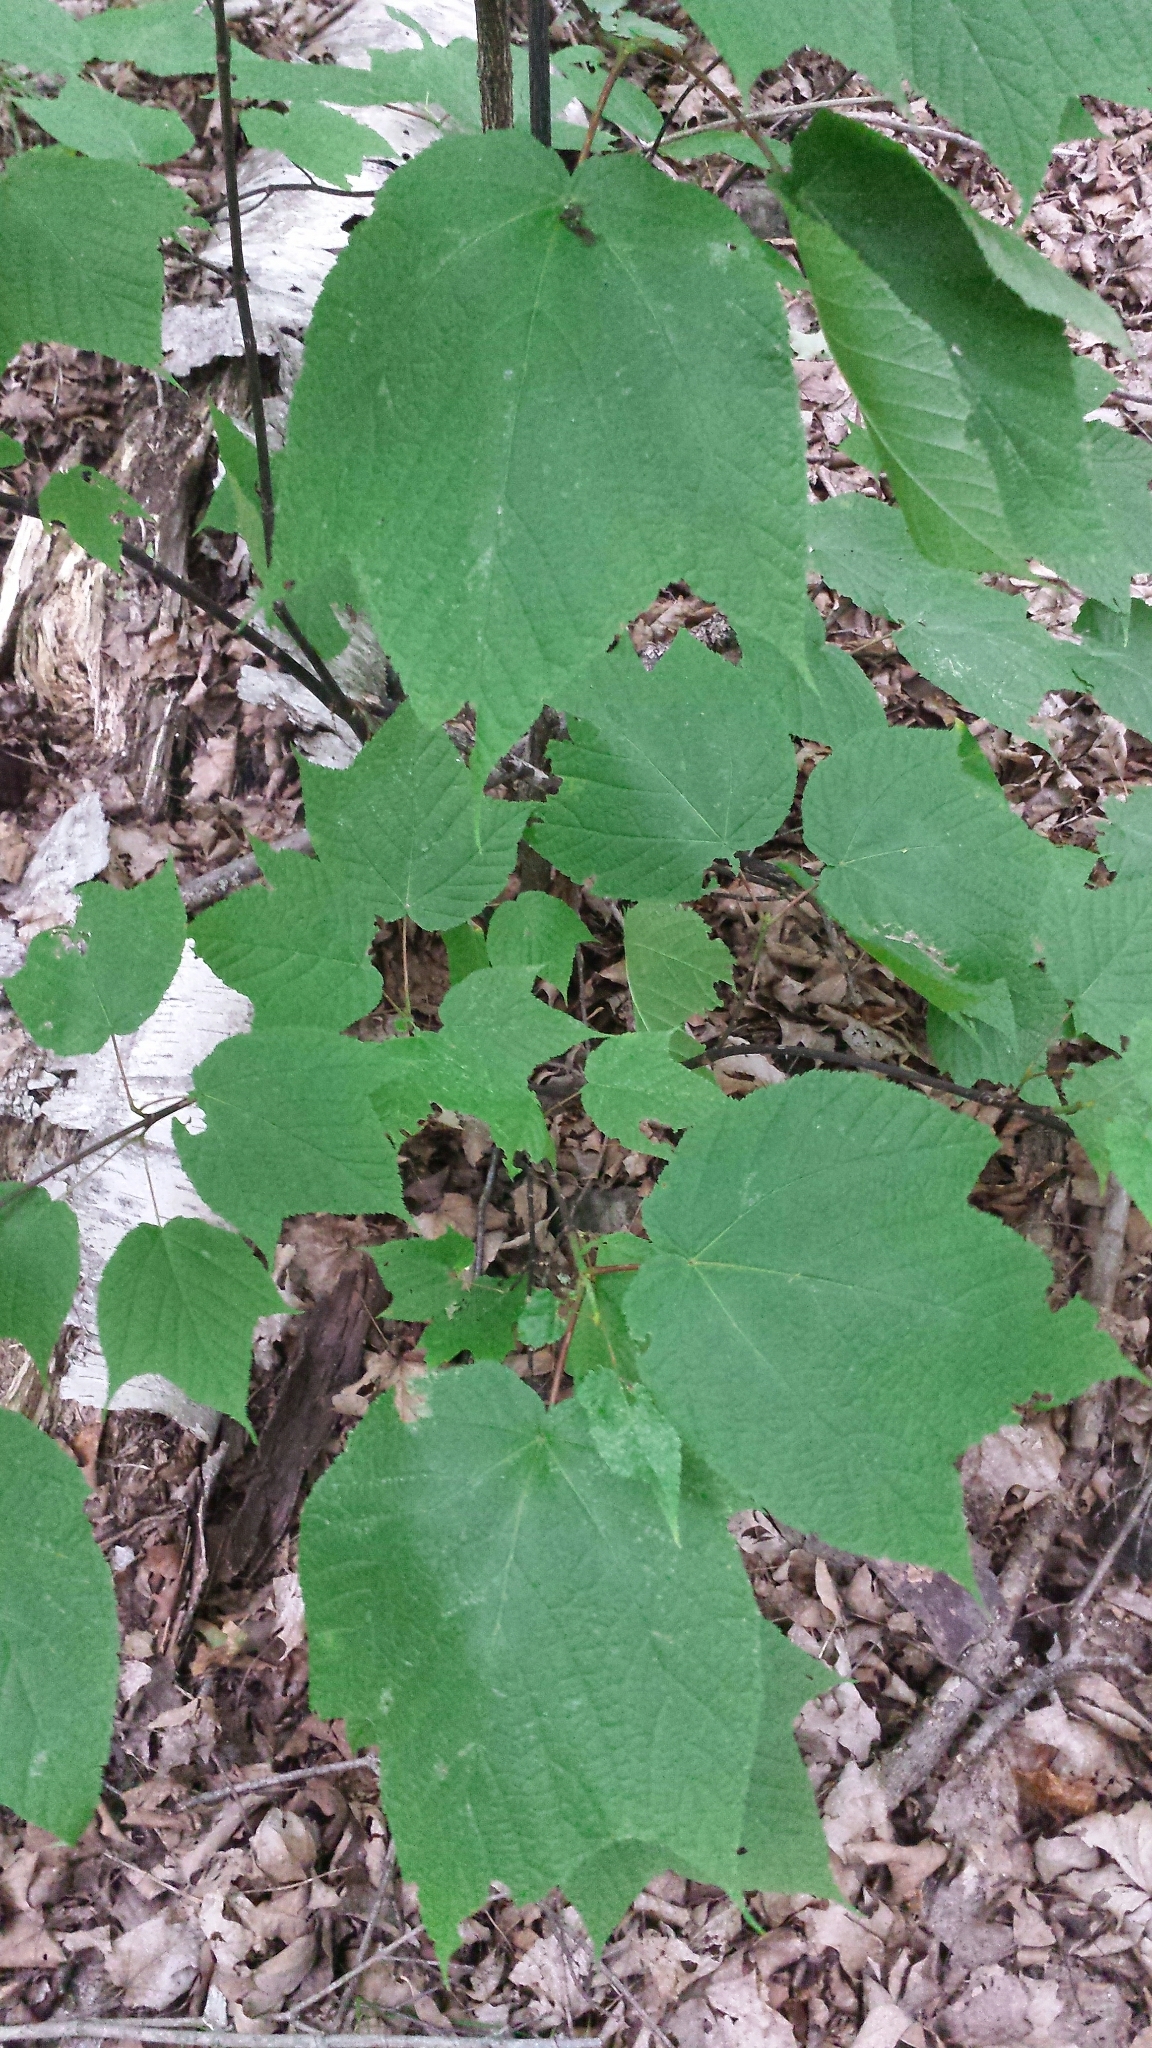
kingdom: Plantae
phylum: Tracheophyta
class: Magnoliopsida
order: Sapindales
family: Sapindaceae
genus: Acer
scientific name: Acer pensylvanicum
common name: Moosewood
